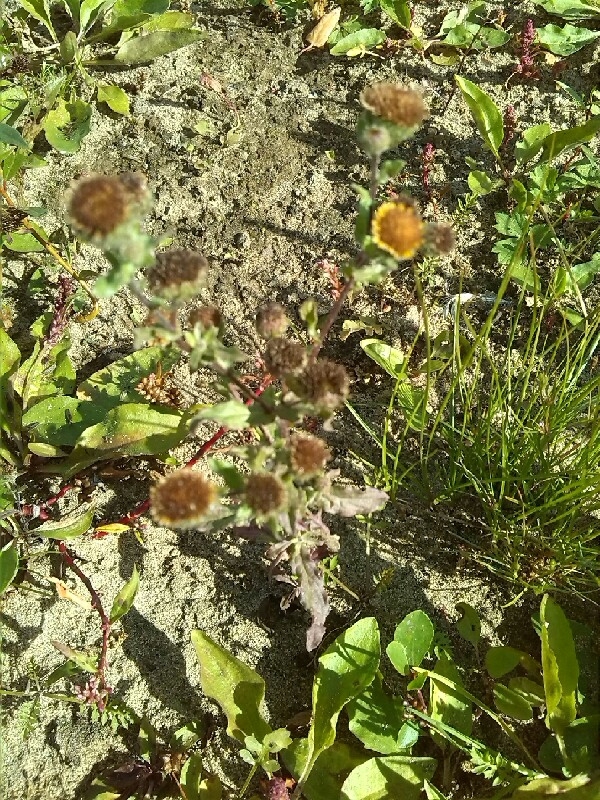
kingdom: Plantae
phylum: Tracheophyta
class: Magnoliopsida
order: Asterales
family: Asteraceae
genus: Pulicaria
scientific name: Pulicaria vulgaris
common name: Small fleabane
